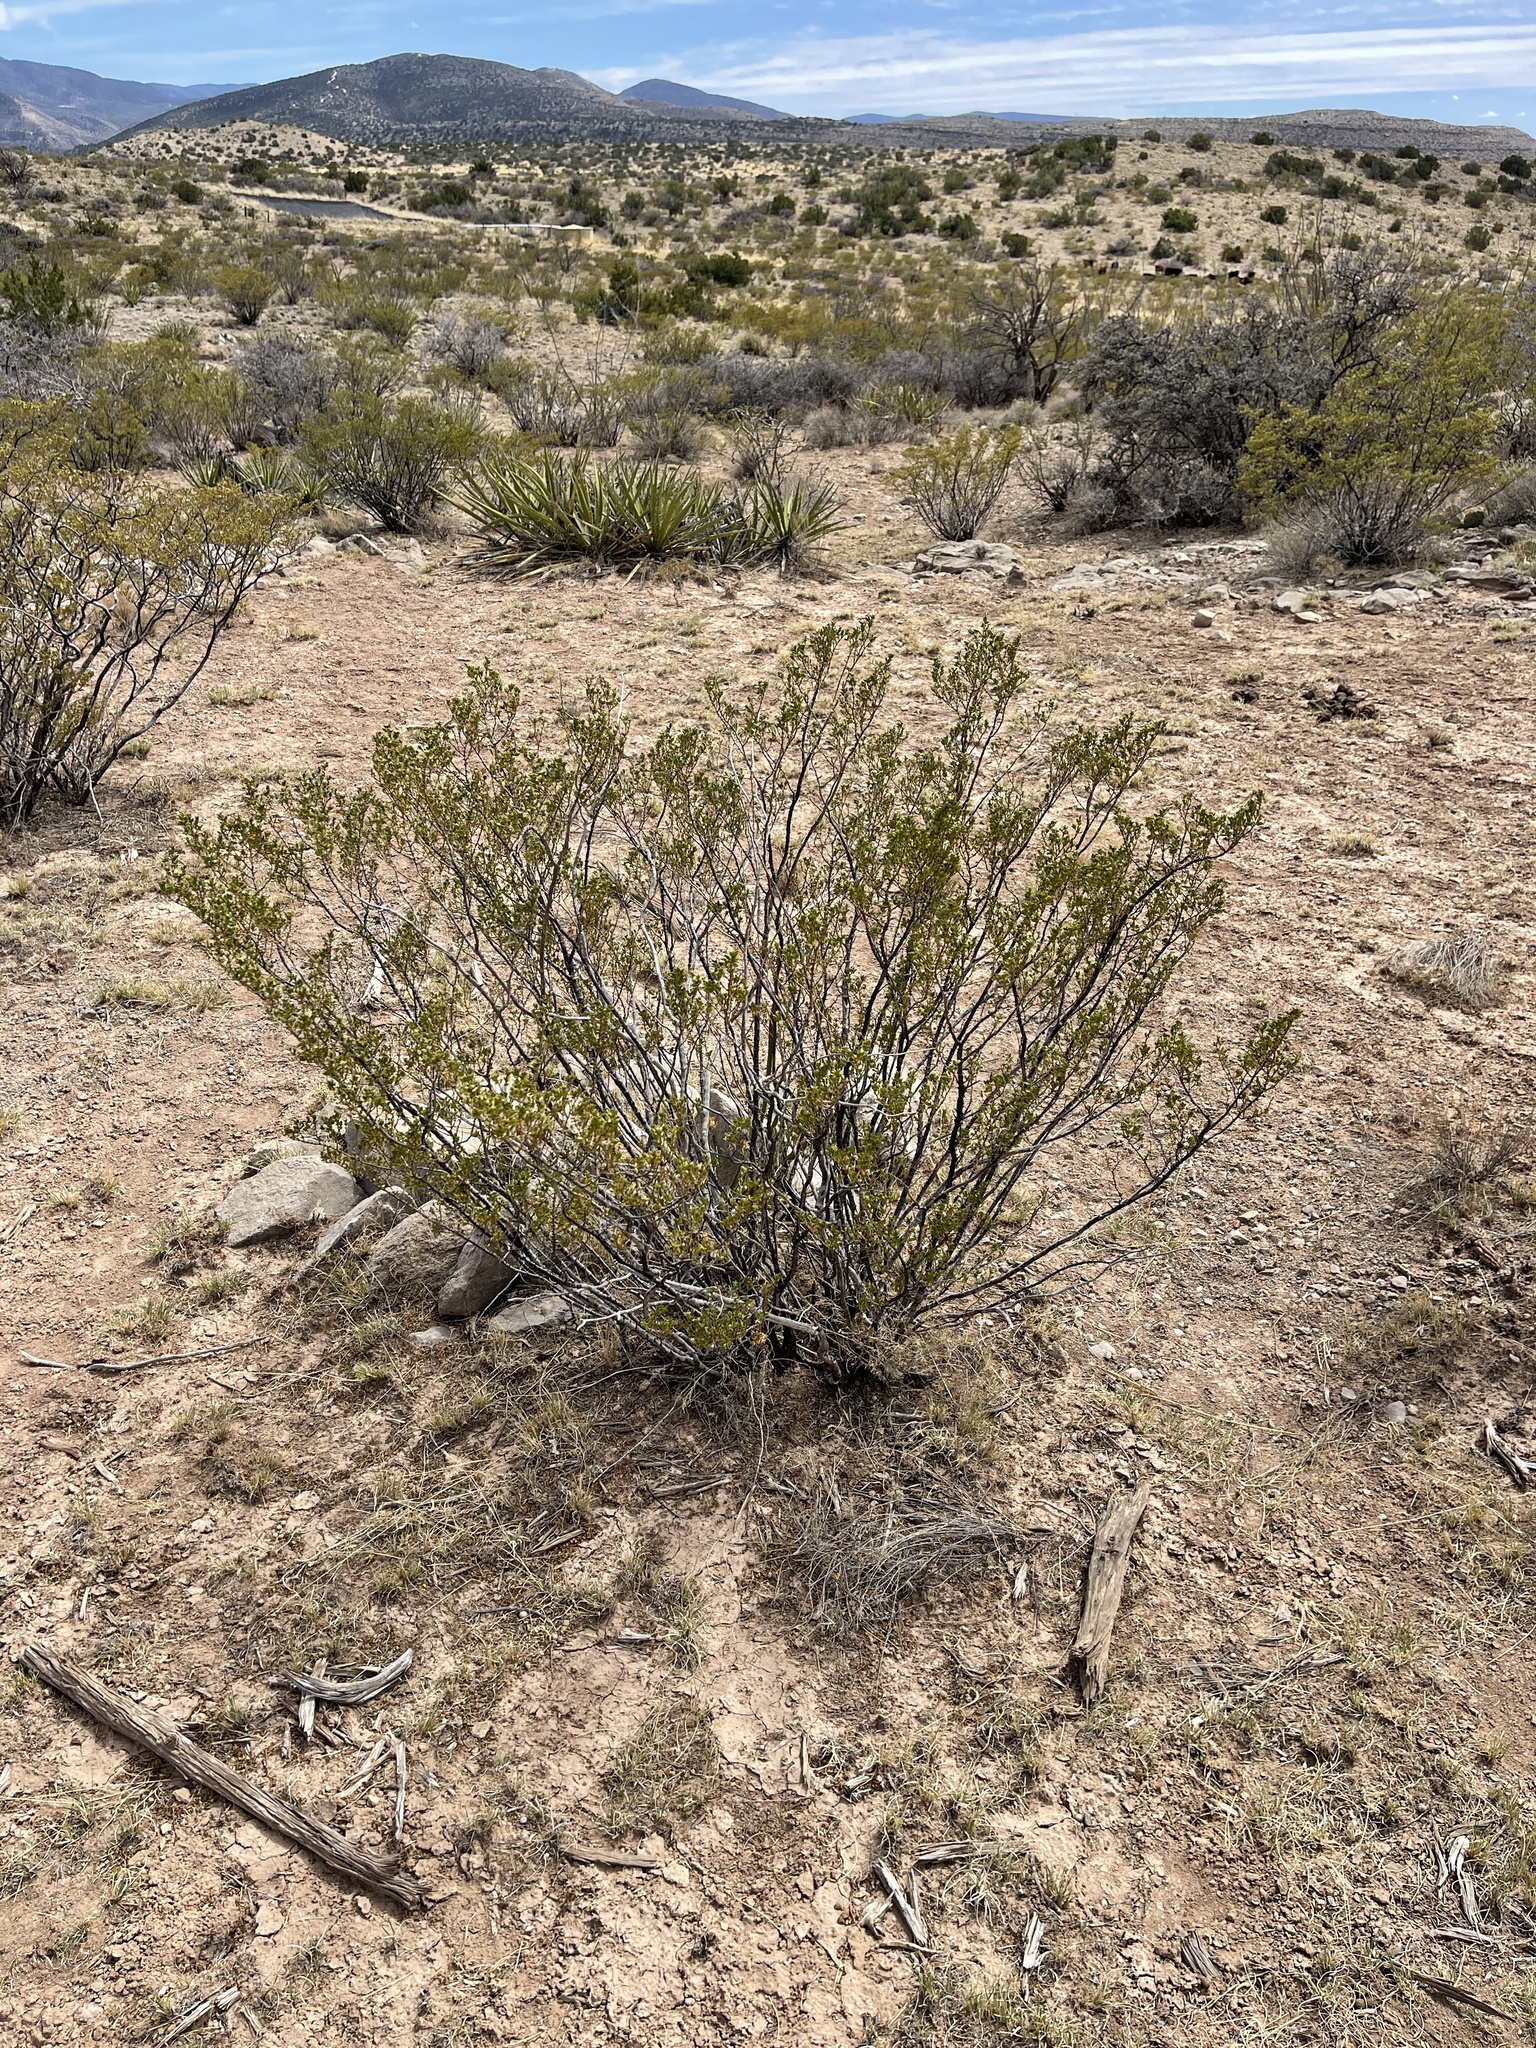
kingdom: Plantae
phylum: Tracheophyta
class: Magnoliopsida
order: Zygophyllales
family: Zygophyllaceae
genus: Larrea
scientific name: Larrea tridentata
